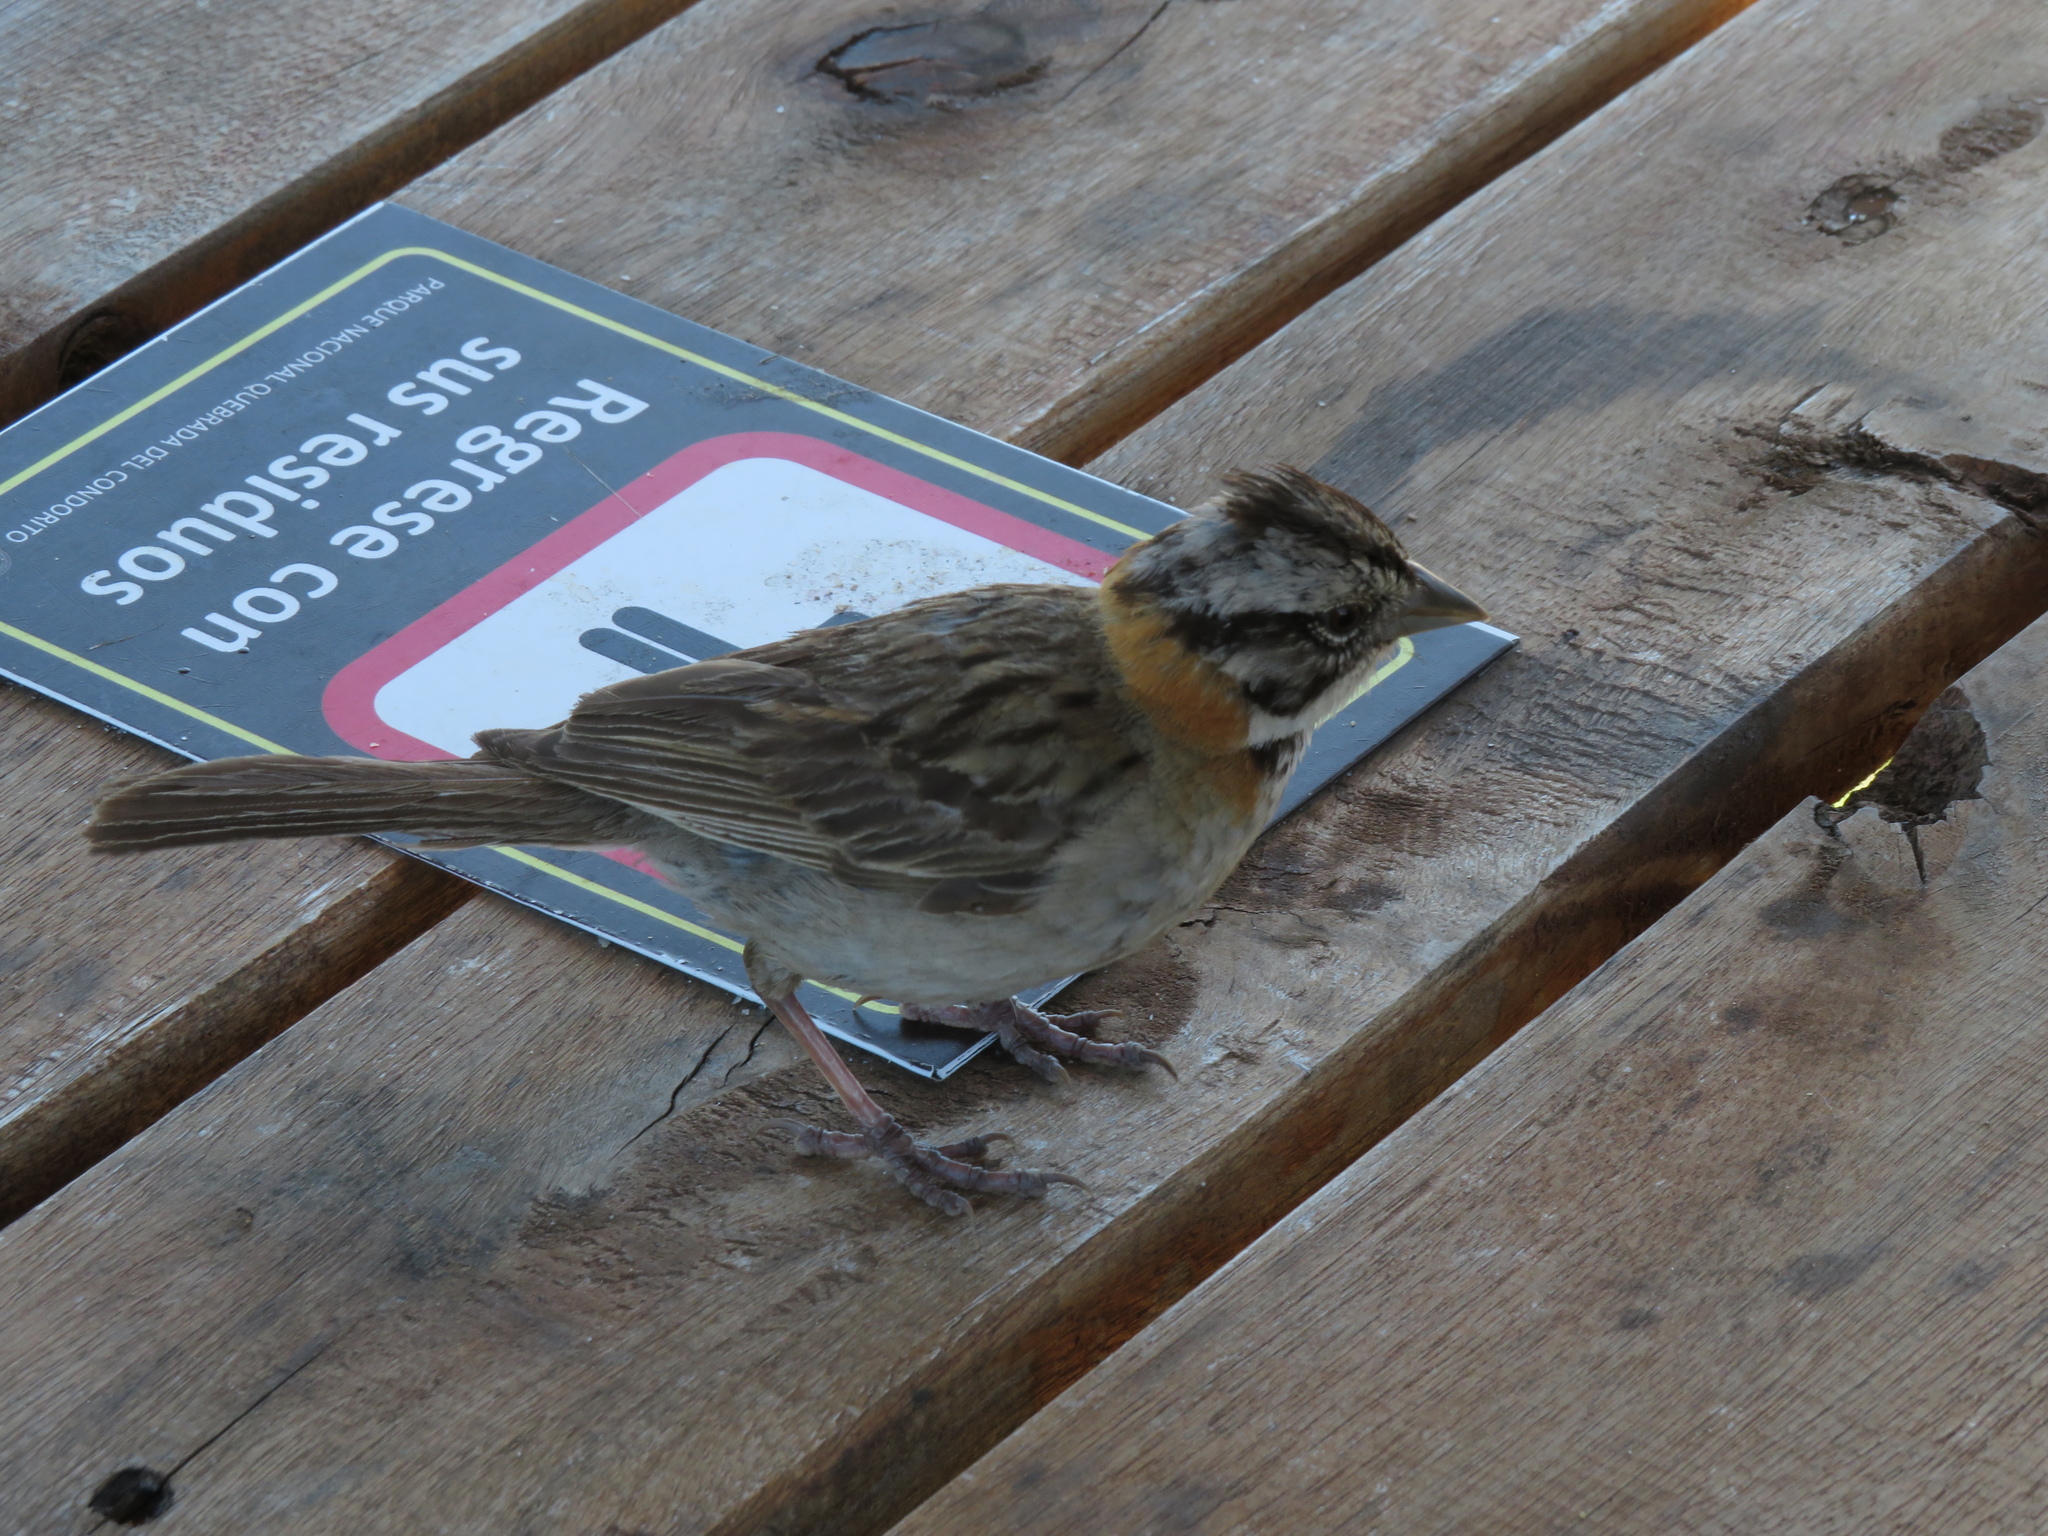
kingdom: Animalia
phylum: Chordata
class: Aves
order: Passeriformes
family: Passerellidae
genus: Zonotrichia
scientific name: Zonotrichia capensis
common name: Rufous-collared sparrow
